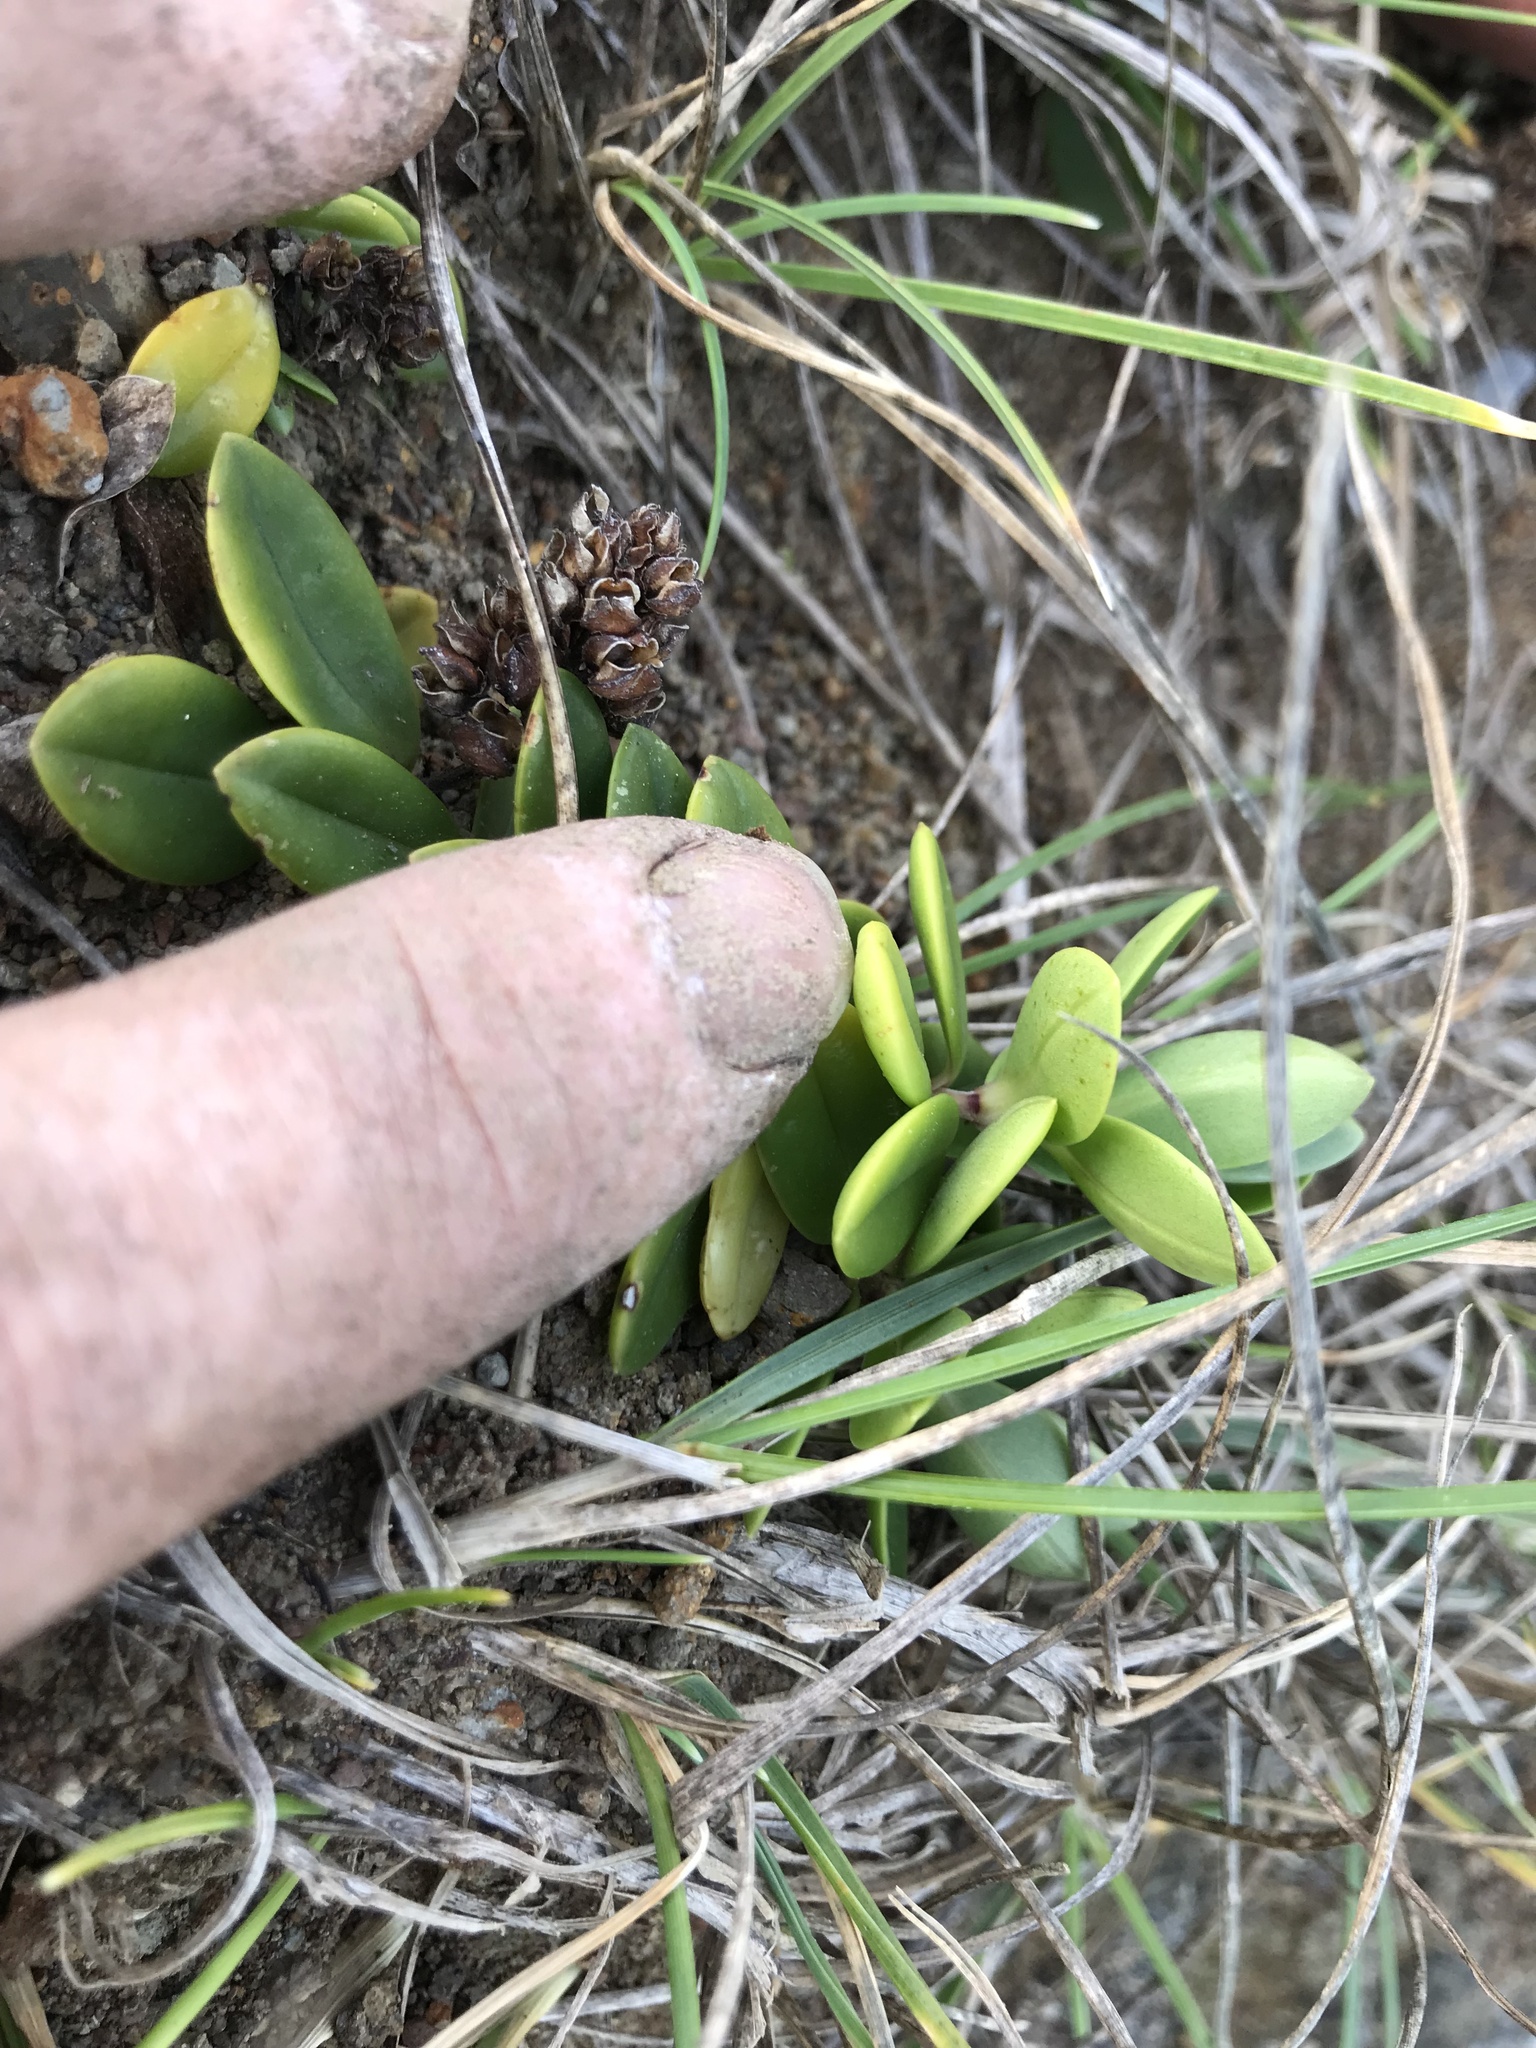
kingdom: Plantae
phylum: Tracheophyta
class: Magnoliopsida
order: Lamiales
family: Plantaginaceae
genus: Veronica
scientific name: Veronica chathamica
